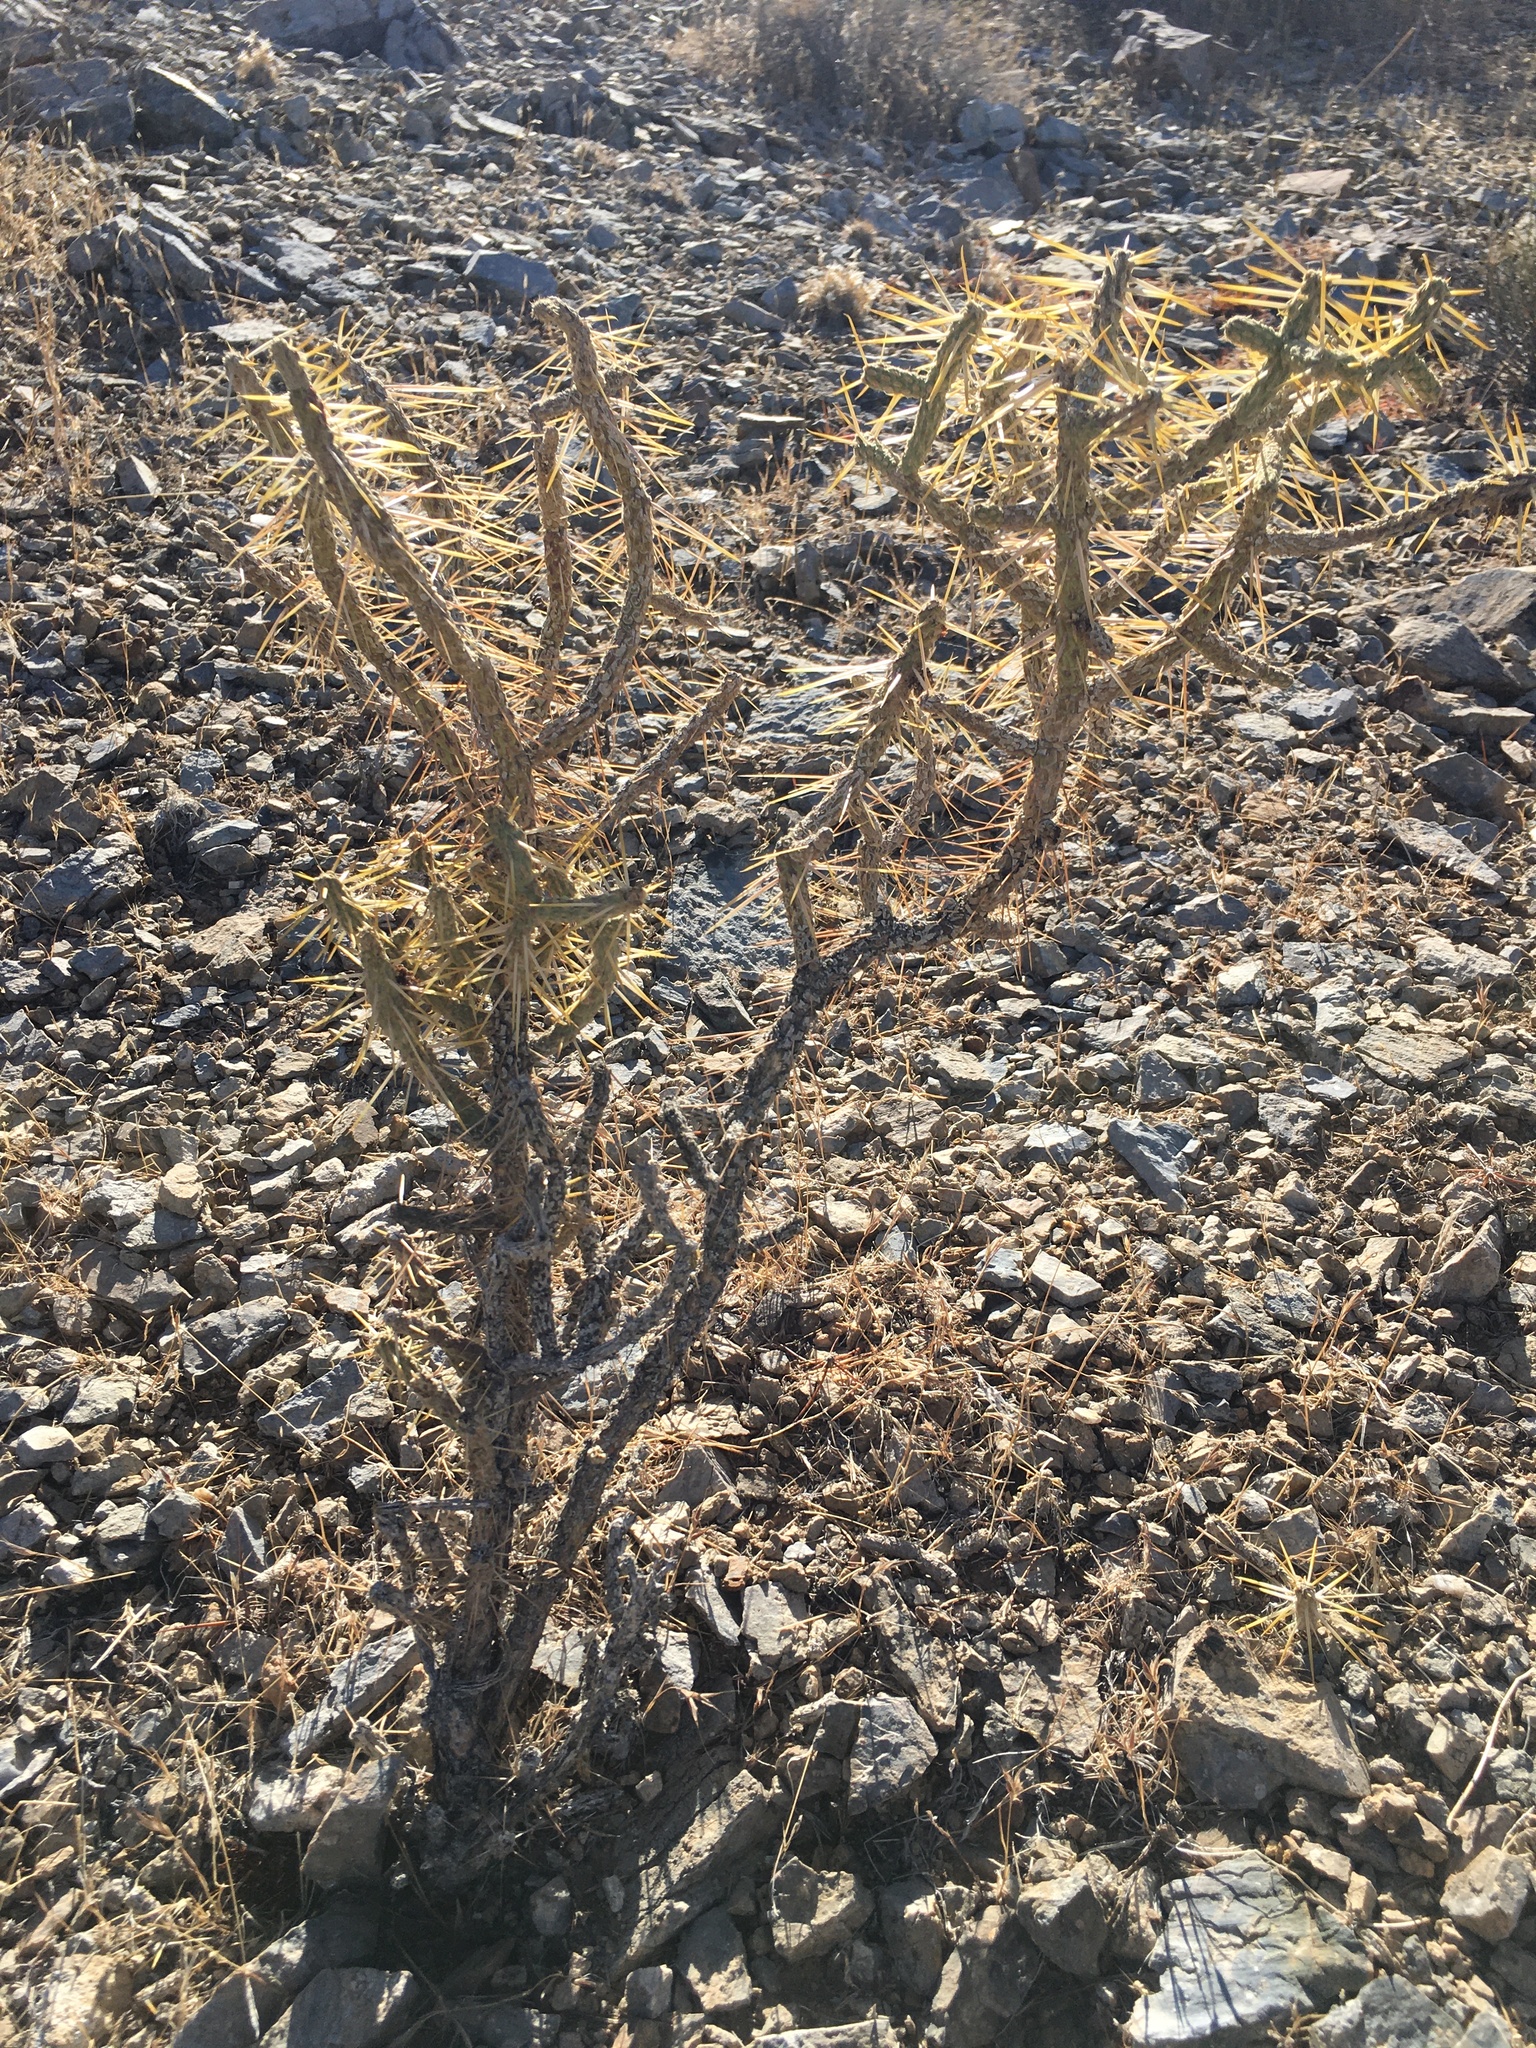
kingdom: Plantae
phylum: Tracheophyta
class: Magnoliopsida
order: Caryophyllales
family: Cactaceae
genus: Cylindropuntia
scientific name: Cylindropuntia ramosissima
